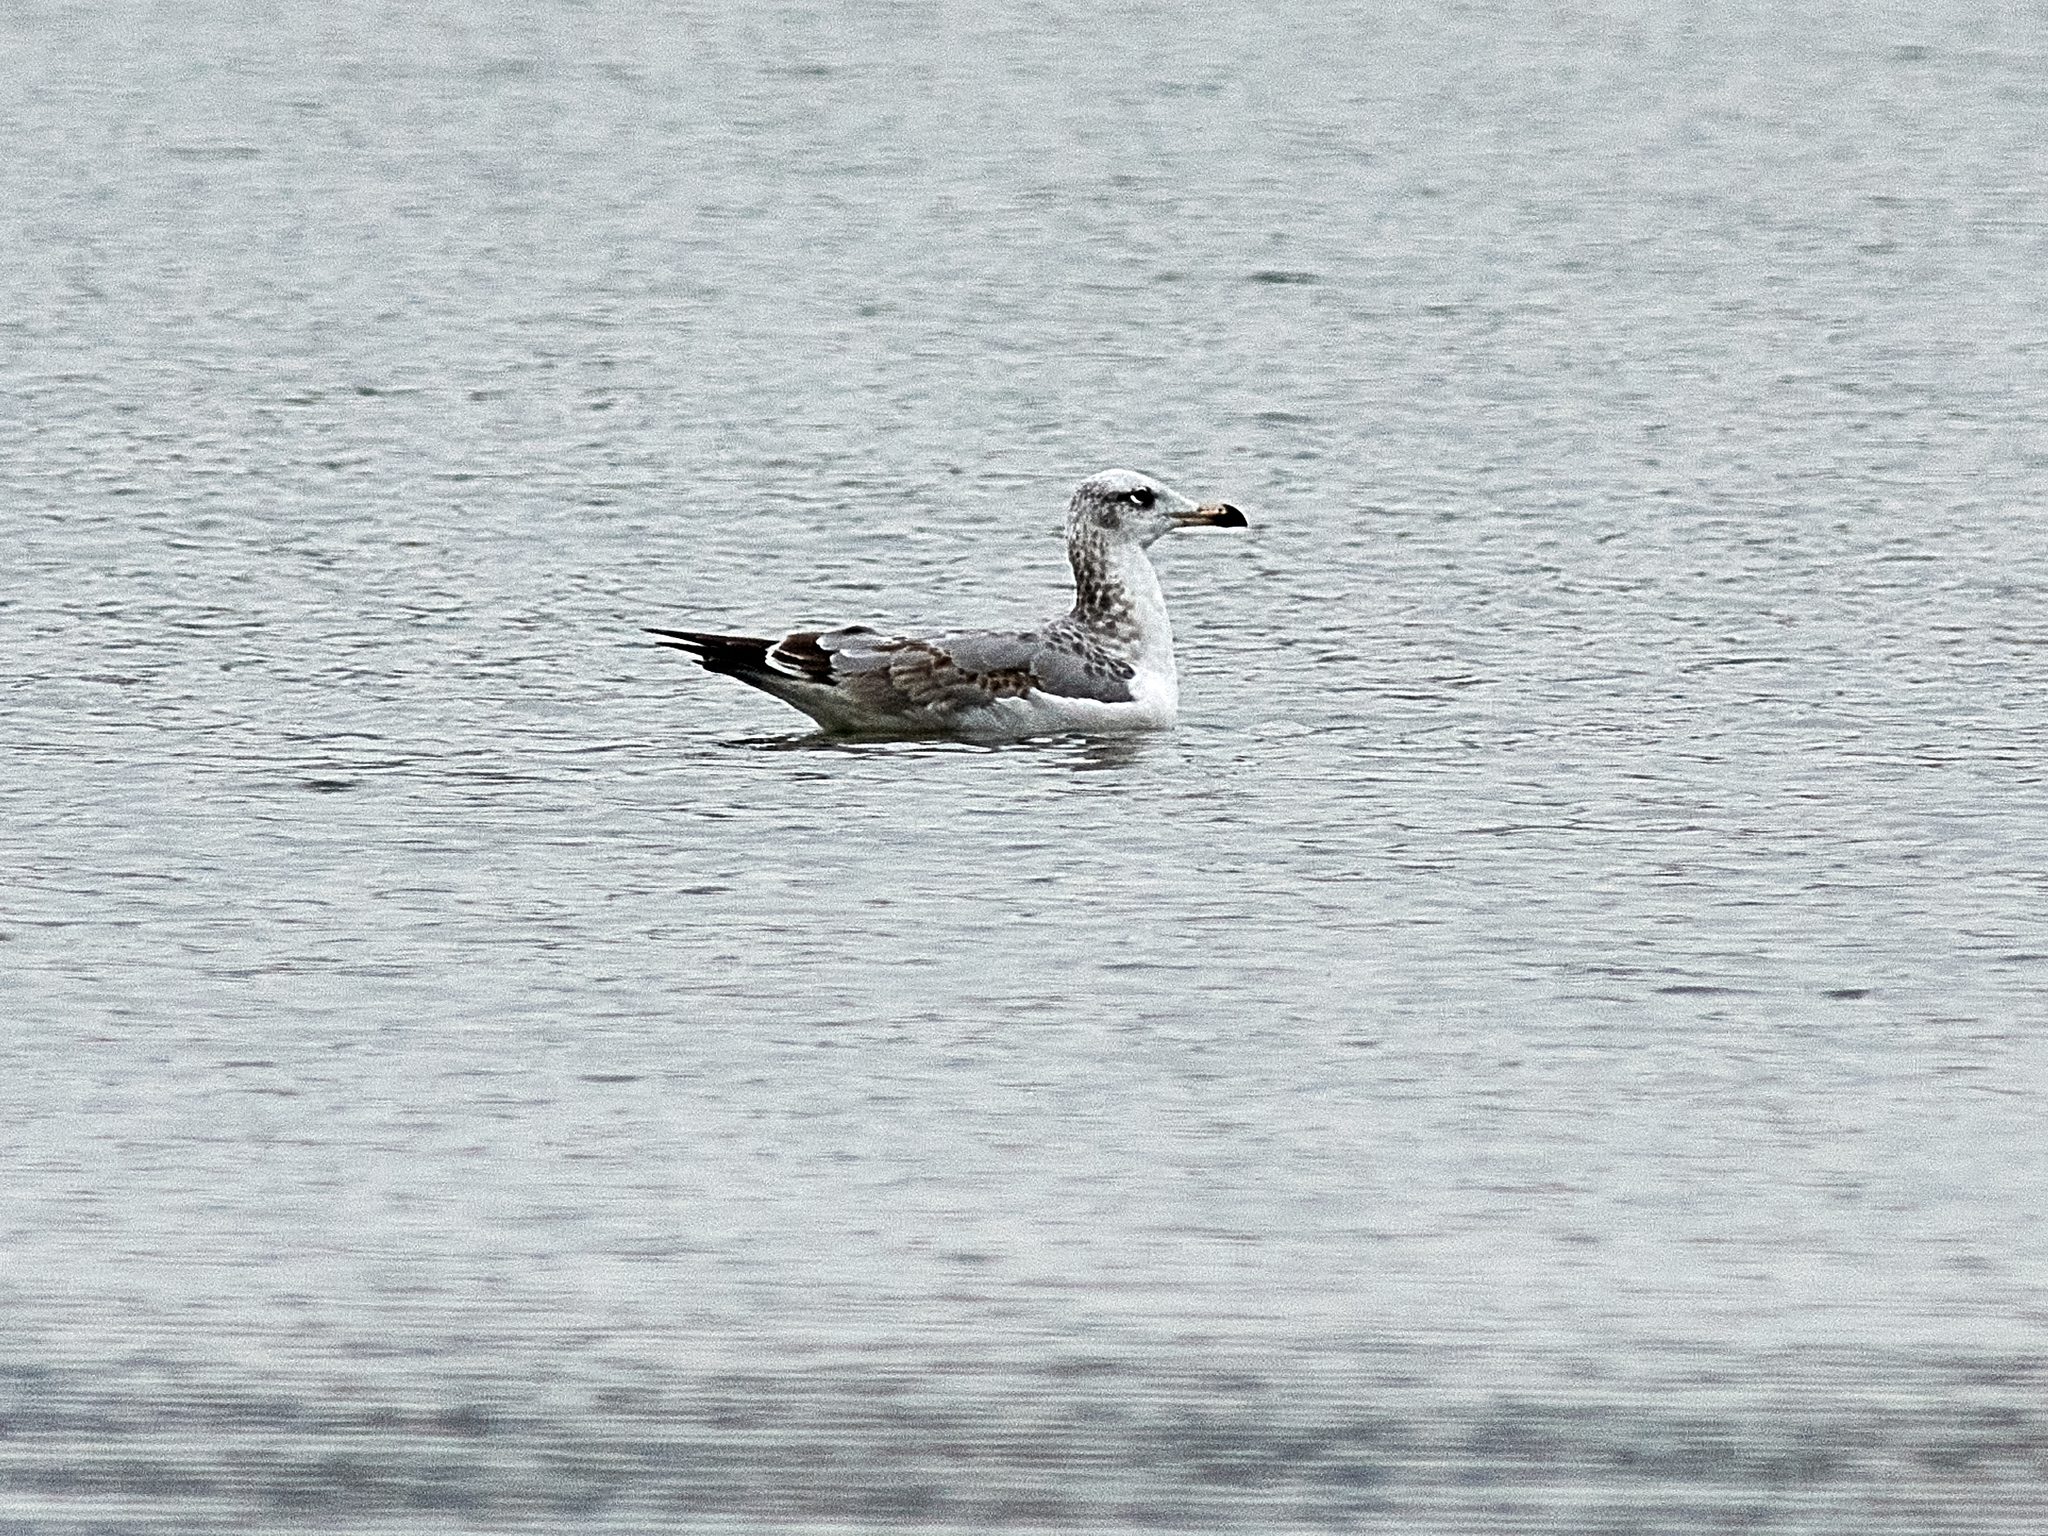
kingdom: Animalia
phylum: Chordata
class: Aves
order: Charadriiformes
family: Laridae
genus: Ichthyaetus
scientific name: Ichthyaetus ichthyaetus
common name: Pallas's gull
